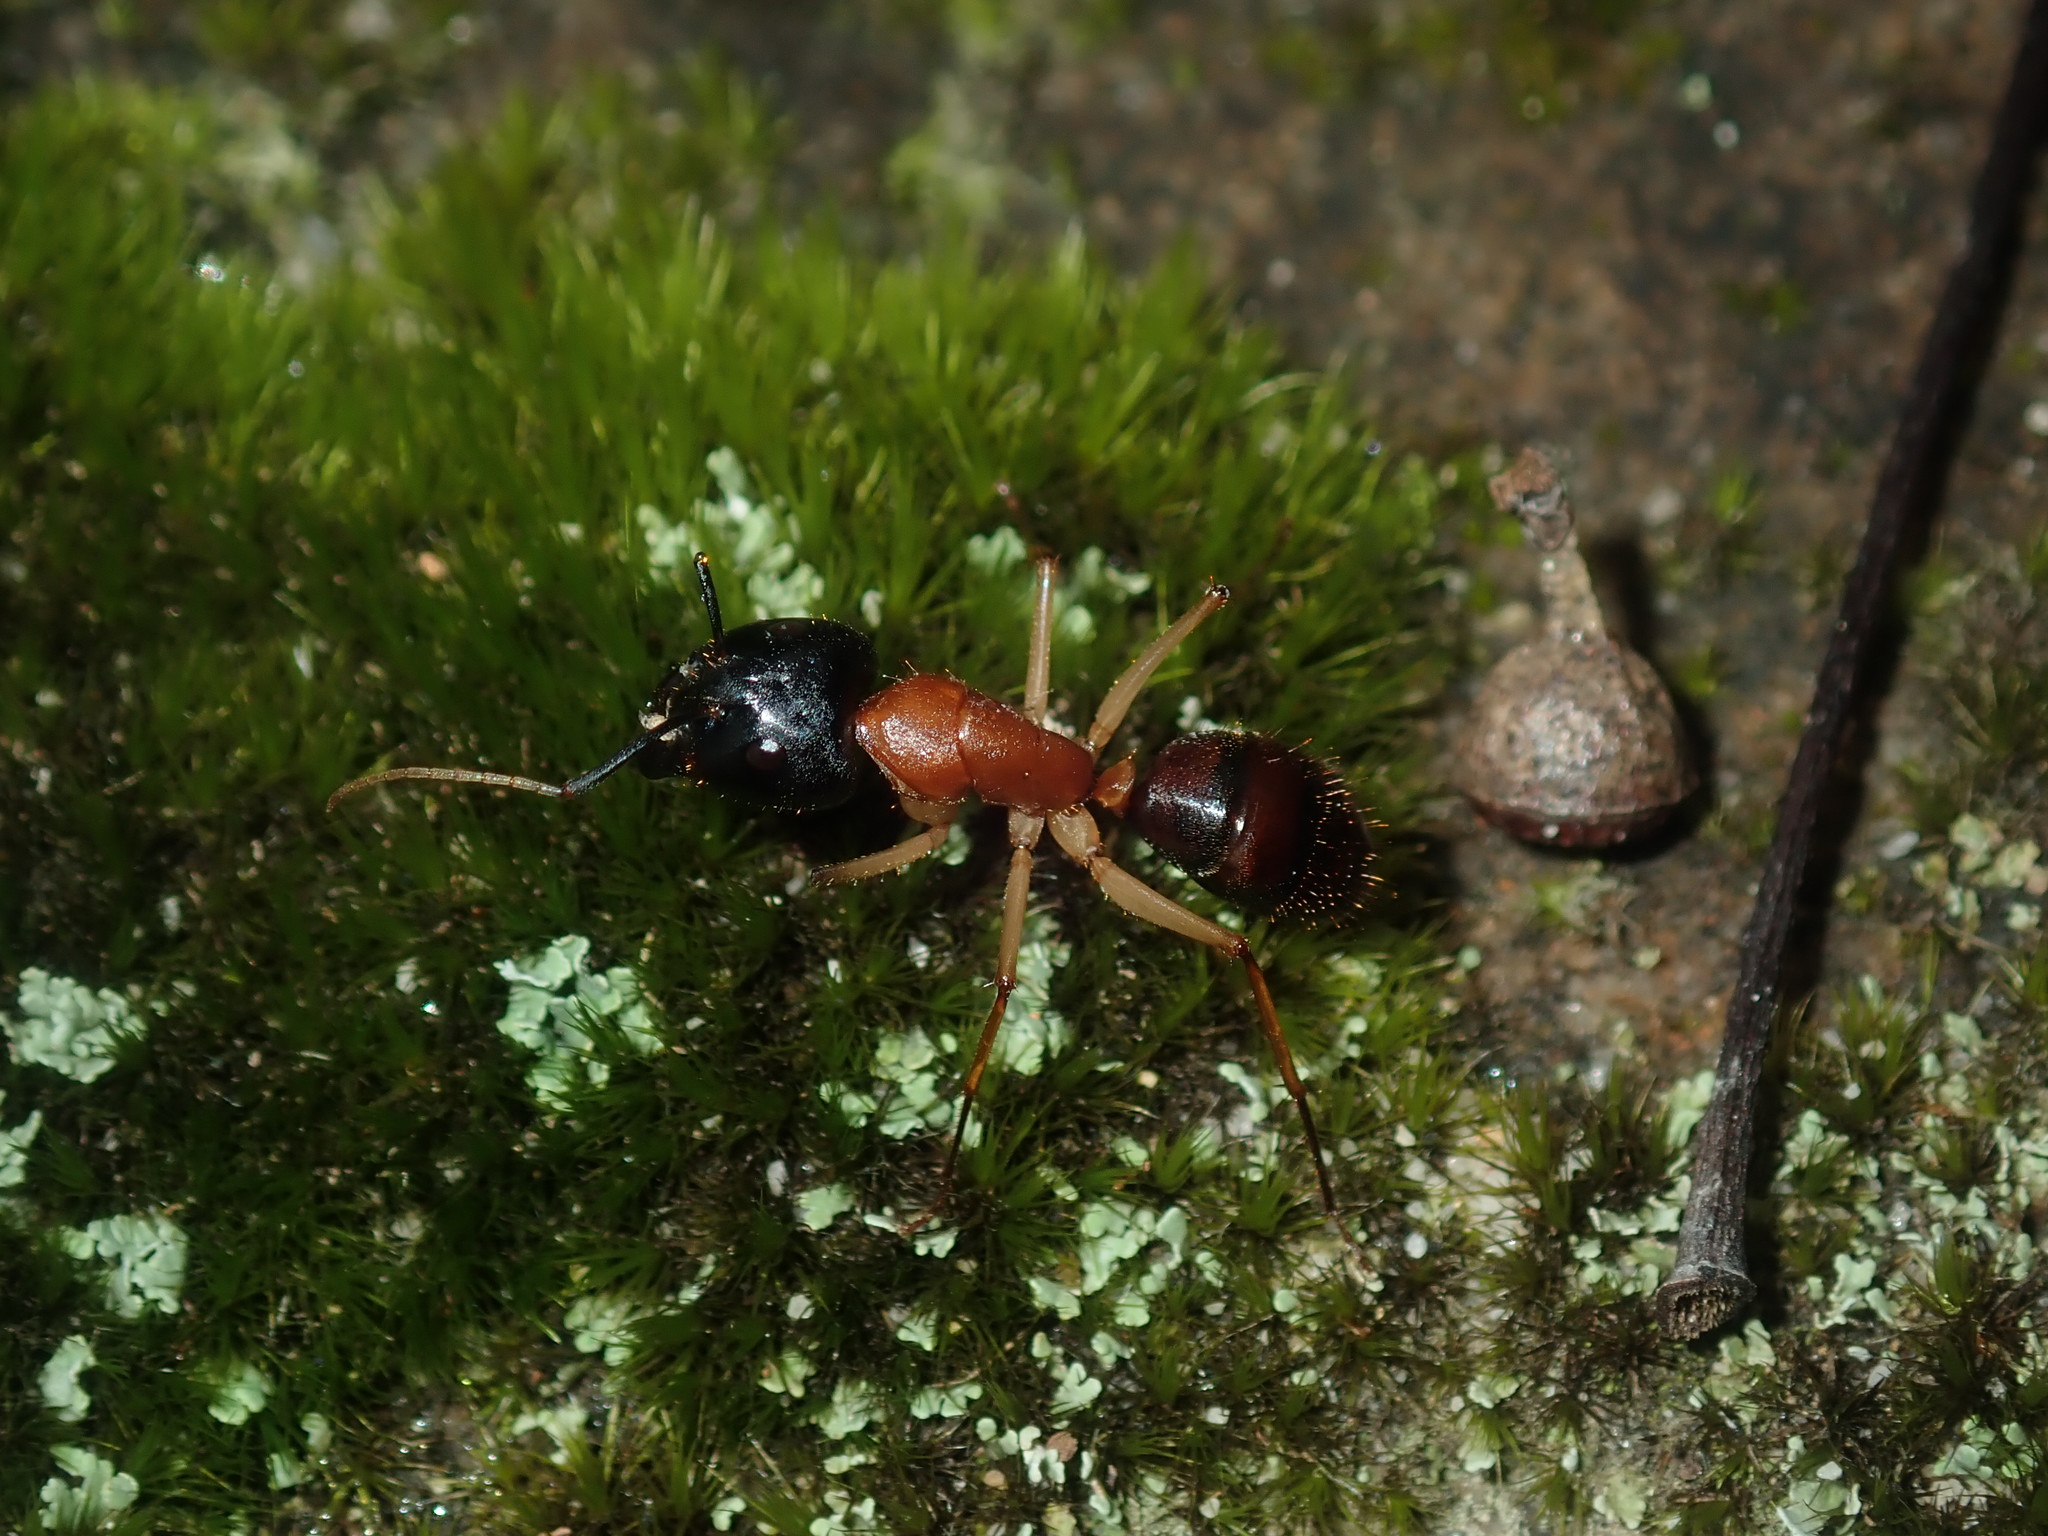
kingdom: Animalia
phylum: Arthropoda
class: Insecta
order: Hymenoptera
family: Formicidae
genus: Camponotus
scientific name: Camponotus nigriceps
